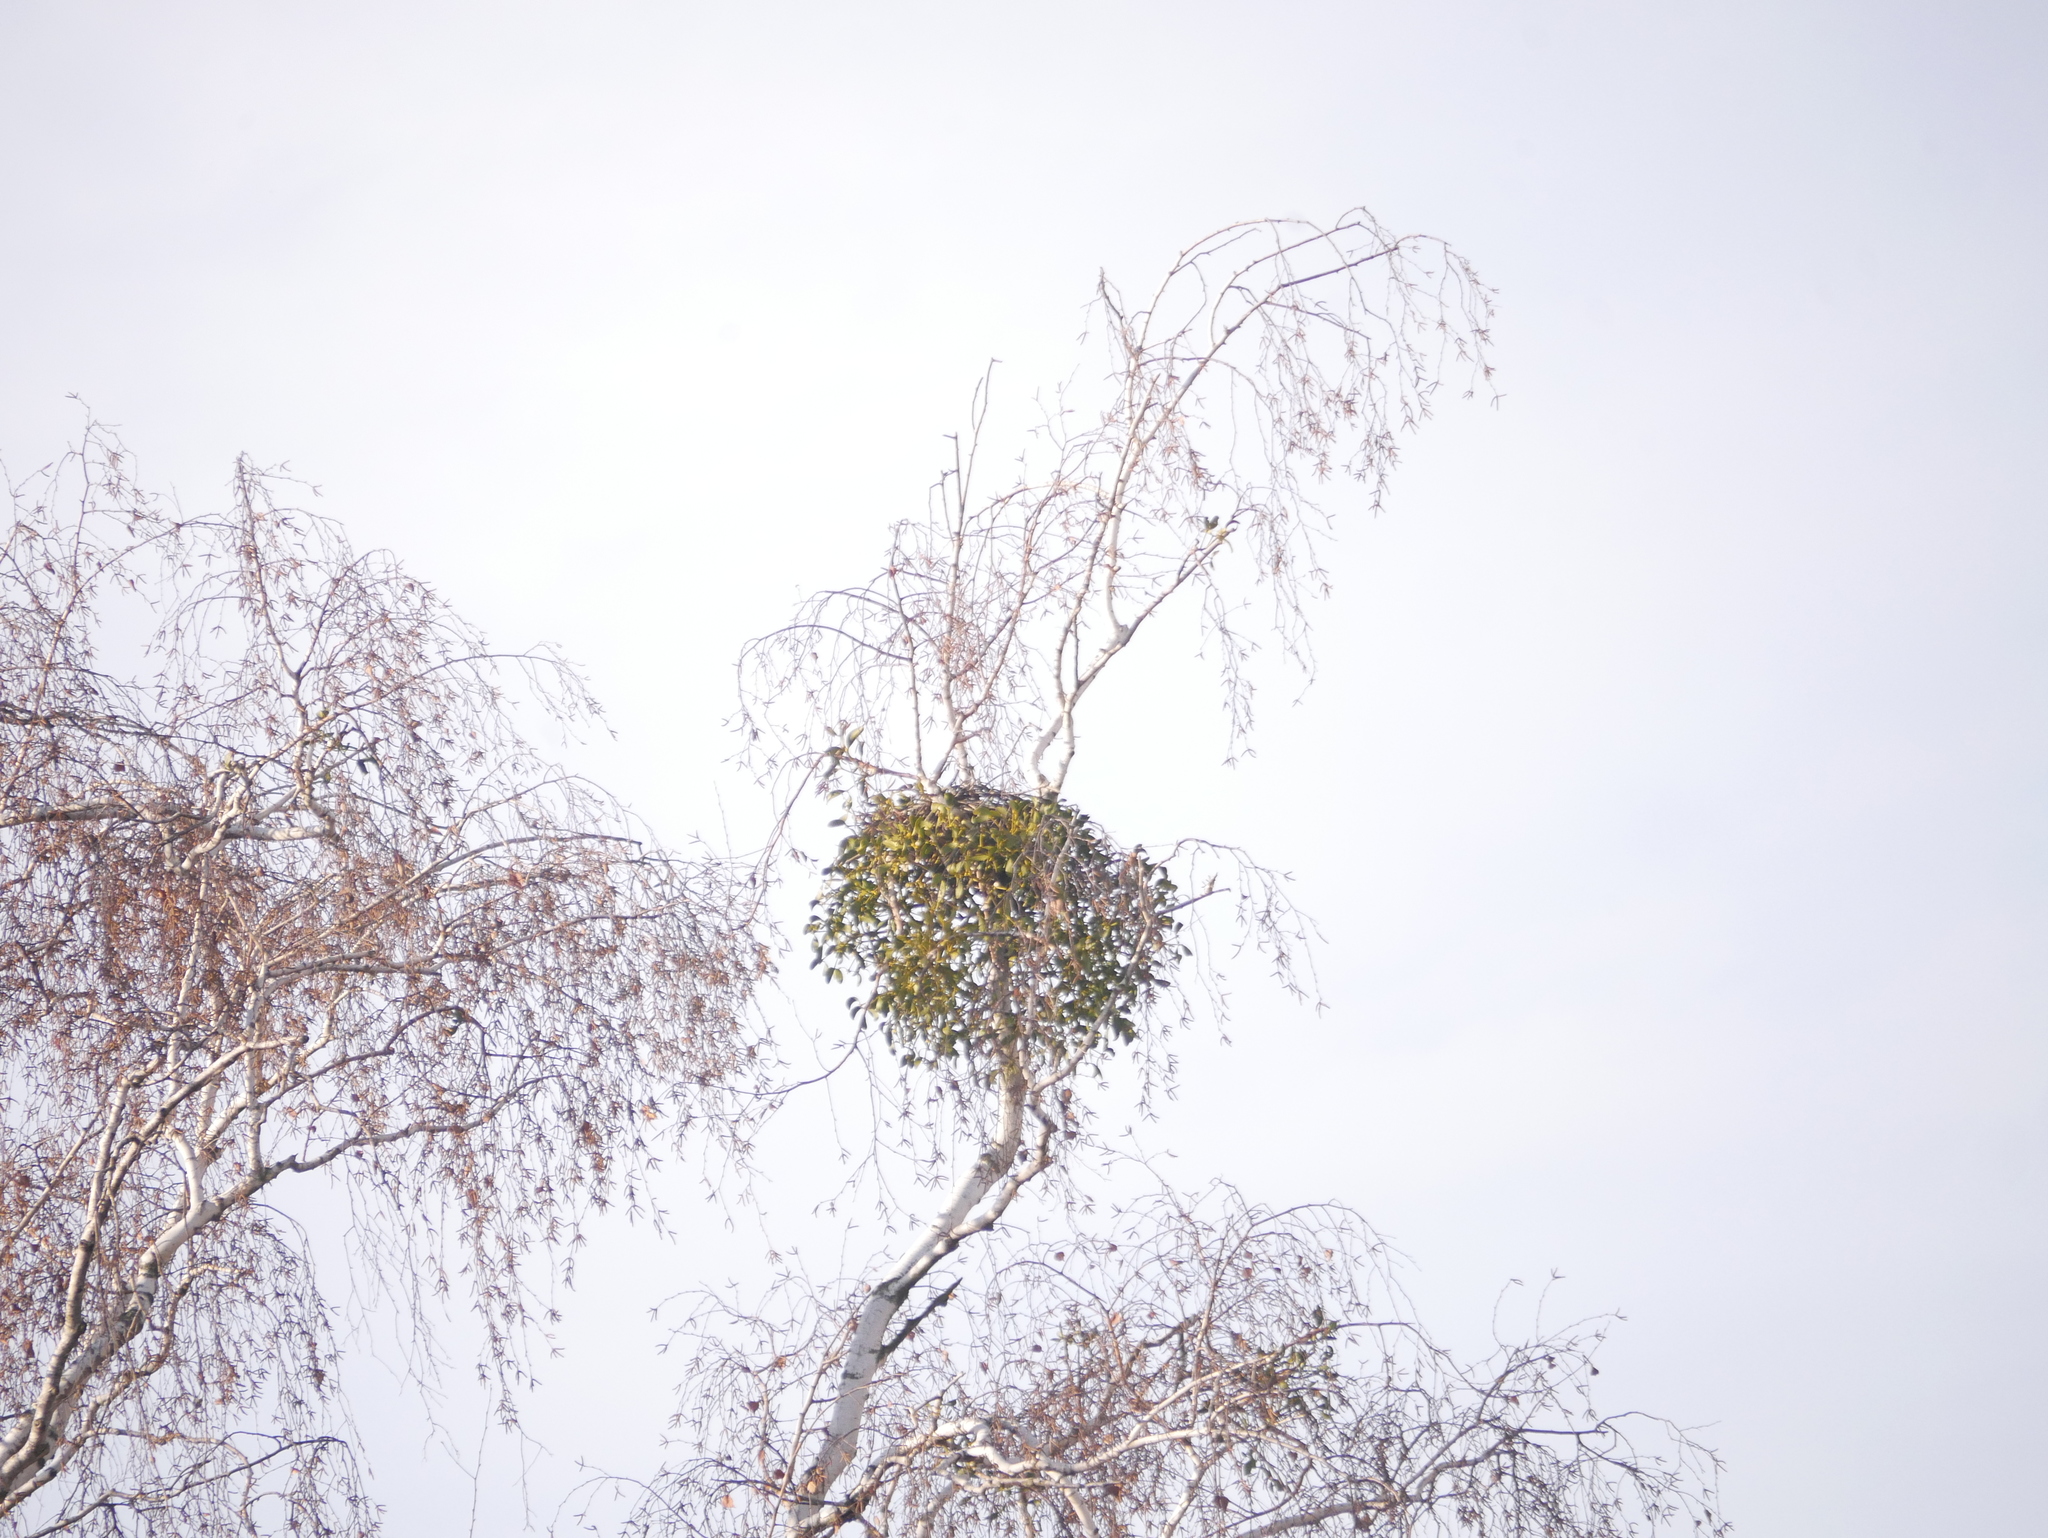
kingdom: Plantae
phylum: Tracheophyta
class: Magnoliopsida
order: Santalales
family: Viscaceae
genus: Viscum
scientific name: Viscum album
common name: Mistletoe
